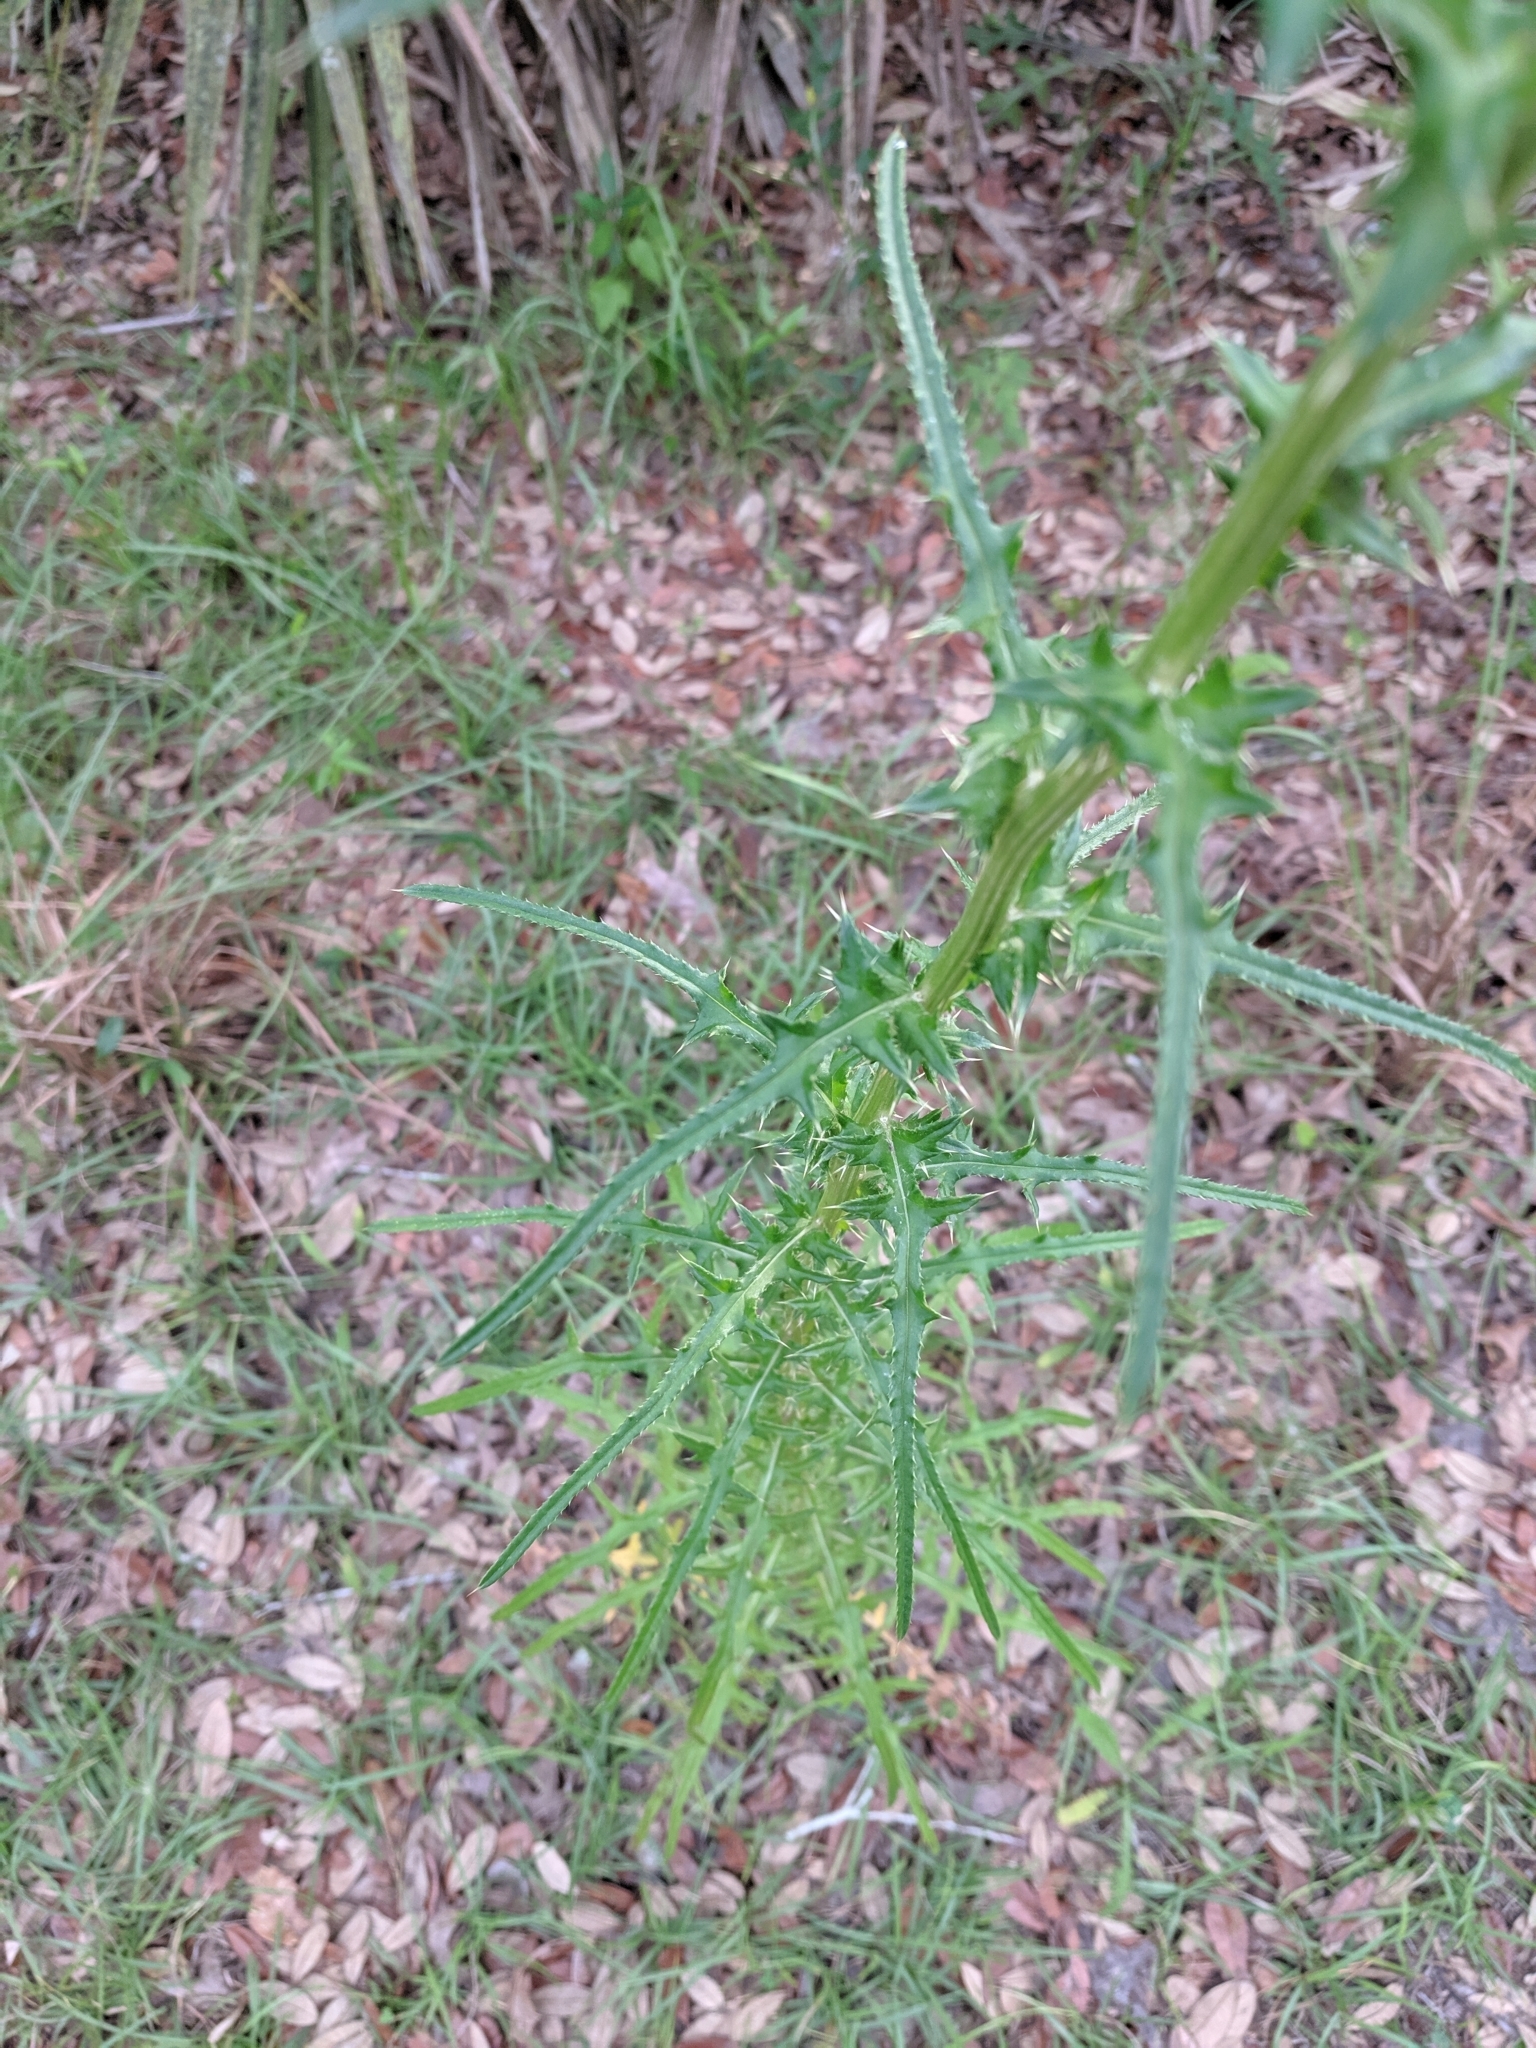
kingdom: Plantae
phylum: Tracheophyta
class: Magnoliopsida
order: Asterales
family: Asteraceae
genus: Cirsium
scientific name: Cirsium nuttalii
